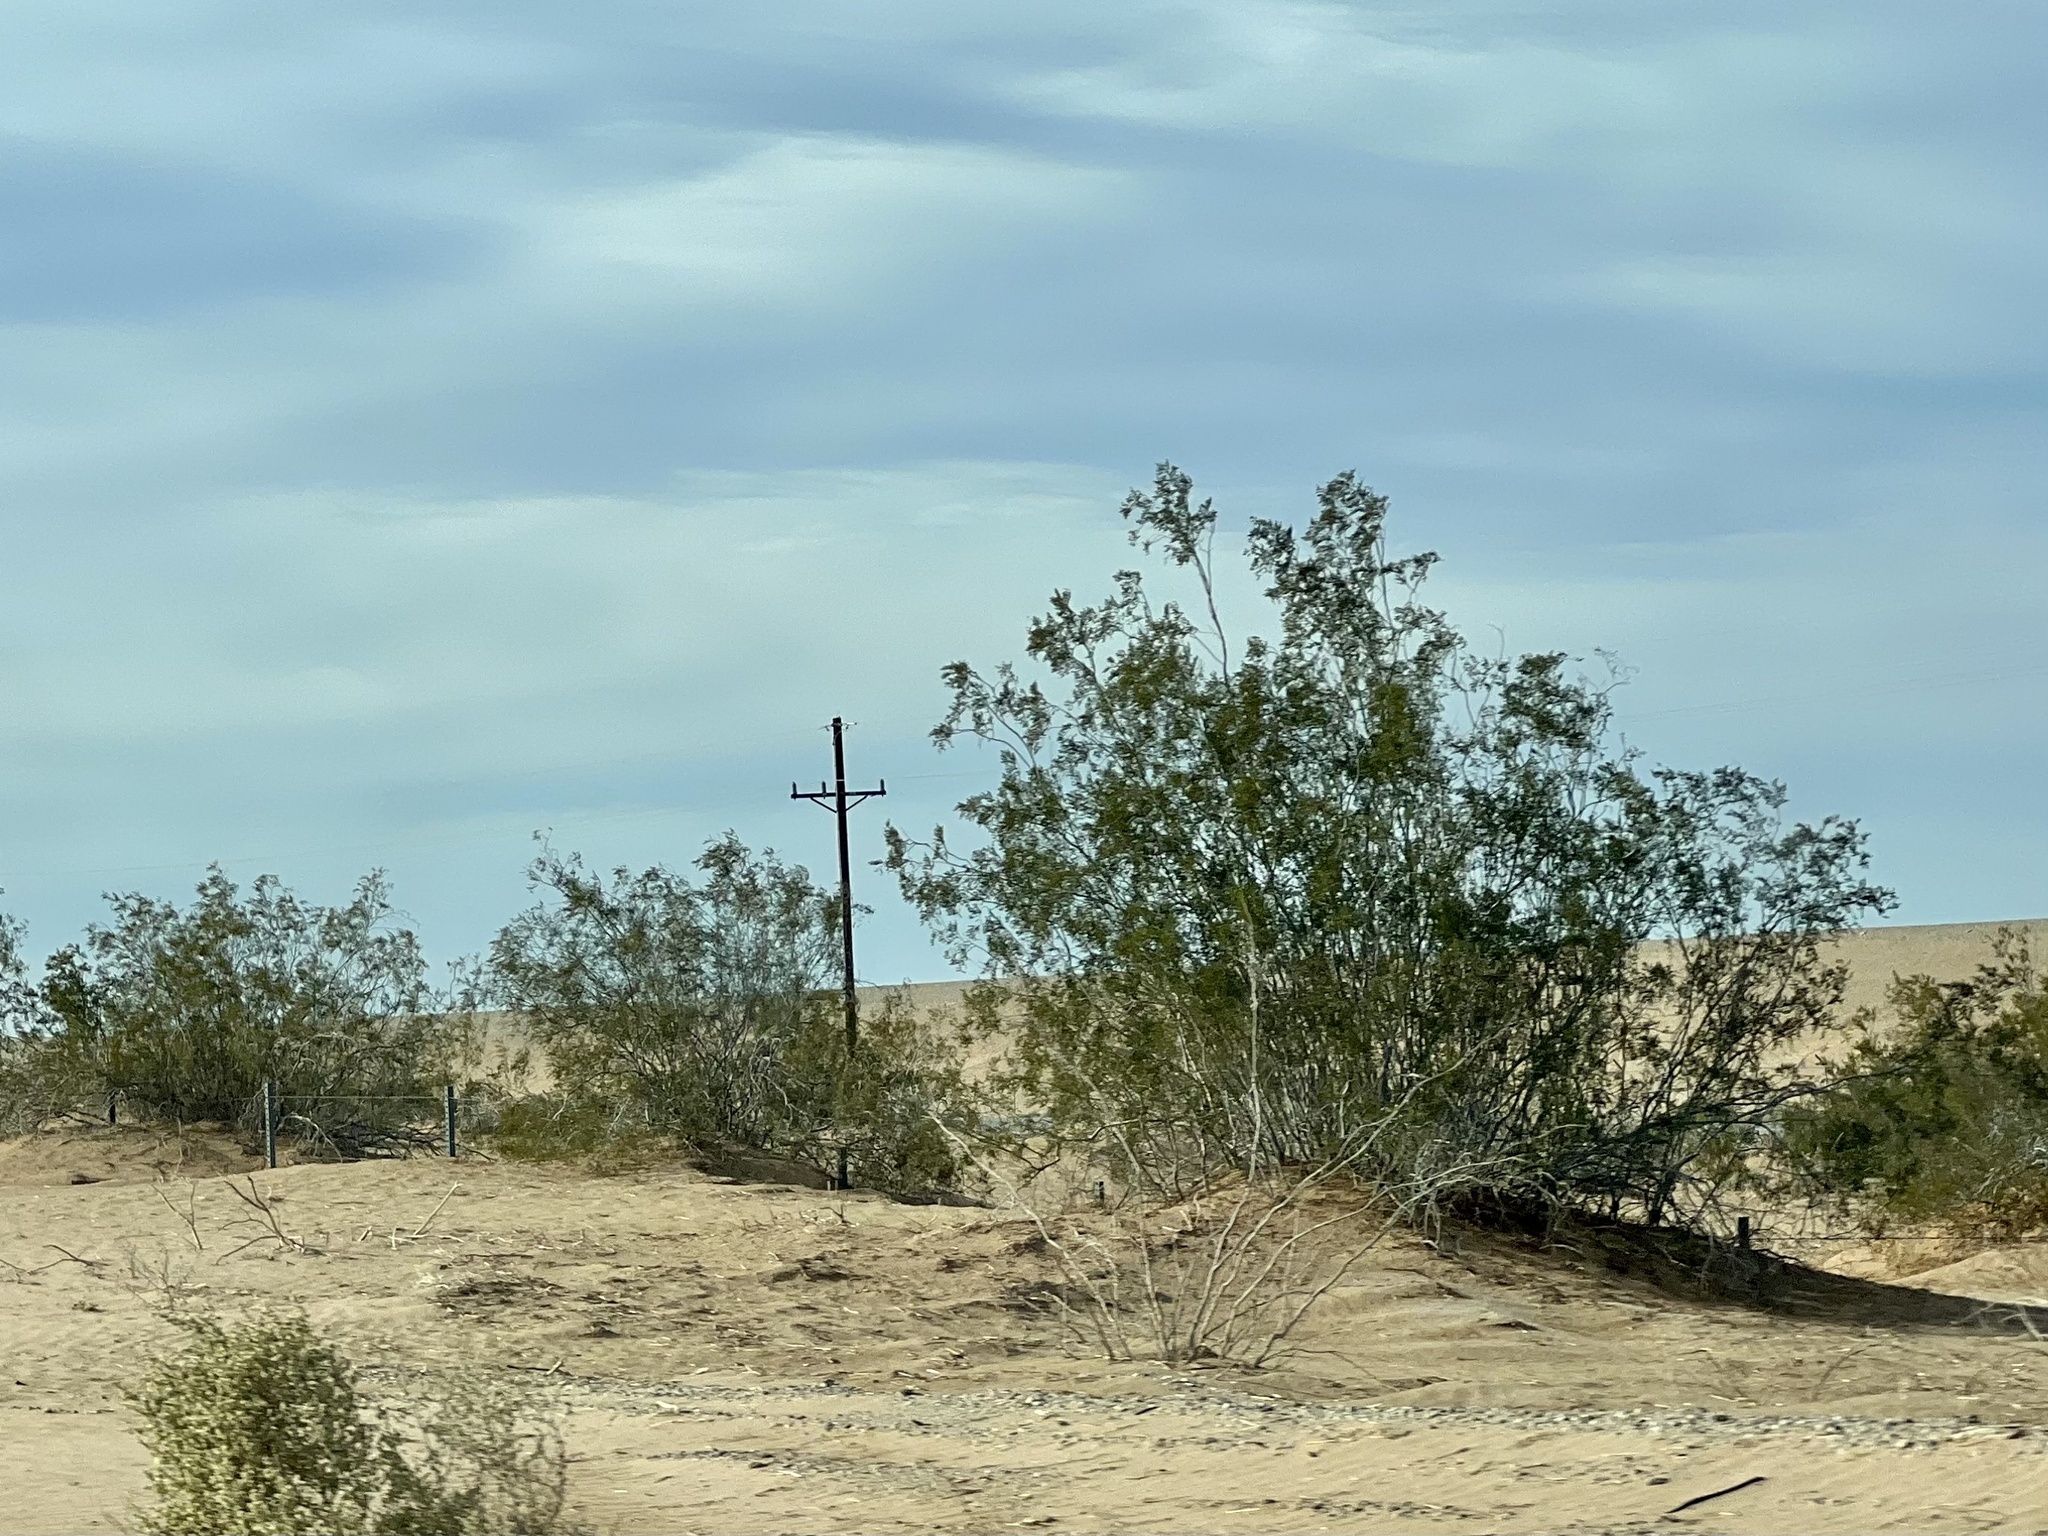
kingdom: Plantae
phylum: Tracheophyta
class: Magnoliopsida
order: Zygophyllales
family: Zygophyllaceae
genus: Larrea
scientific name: Larrea tridentata
